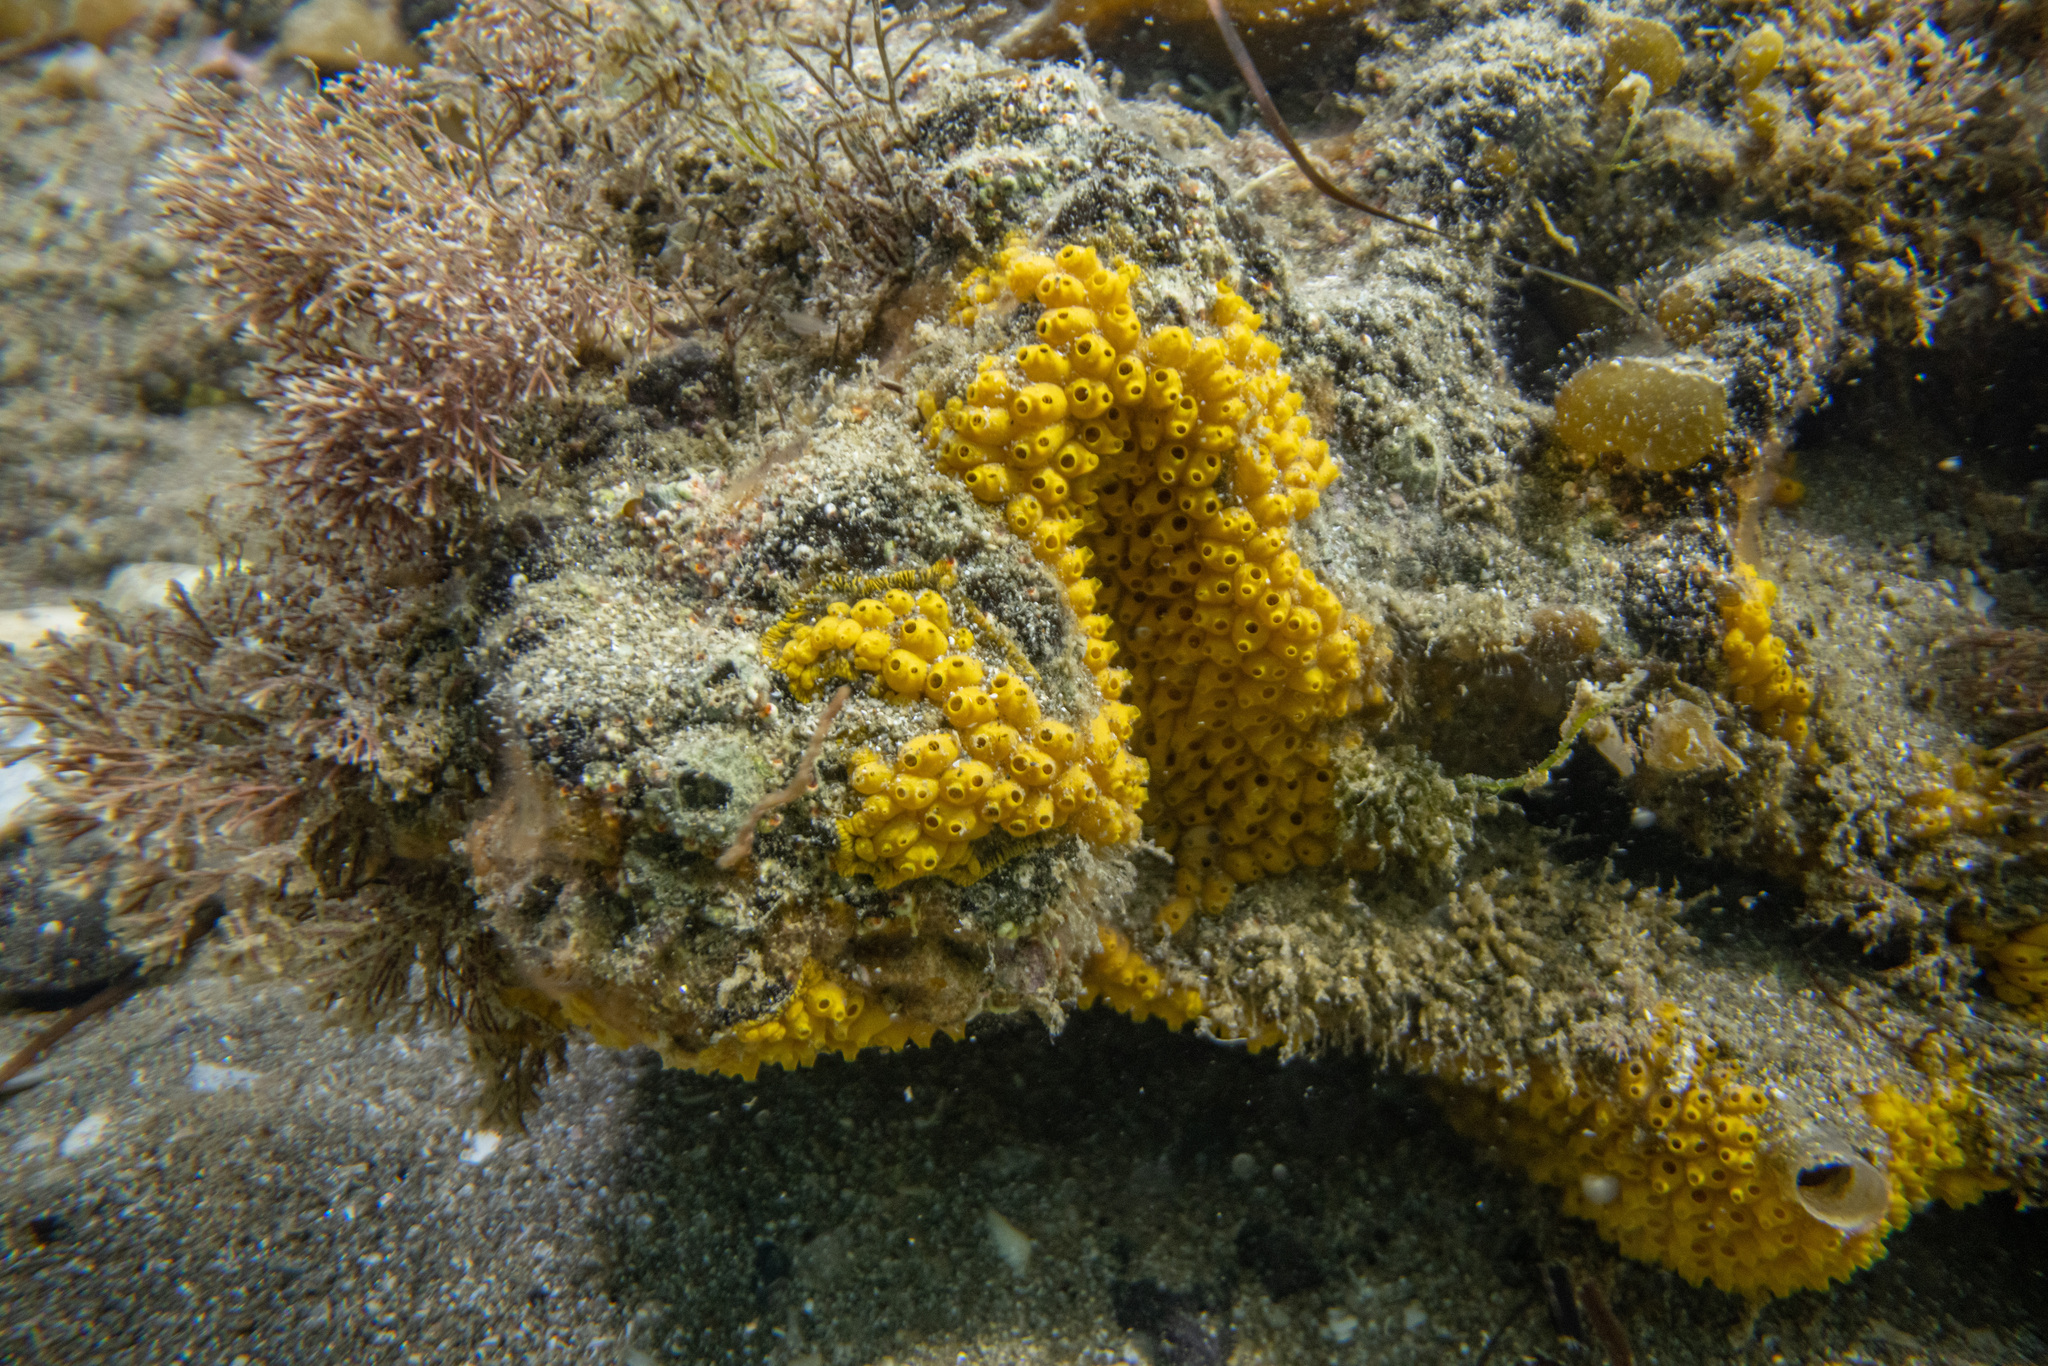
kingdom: Animalia
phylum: Chordata
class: Ascidiacea
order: Stolidobranchia
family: Styelidae
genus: Symplegma
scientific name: Symplegma brakenhielmi
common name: Ascidian
